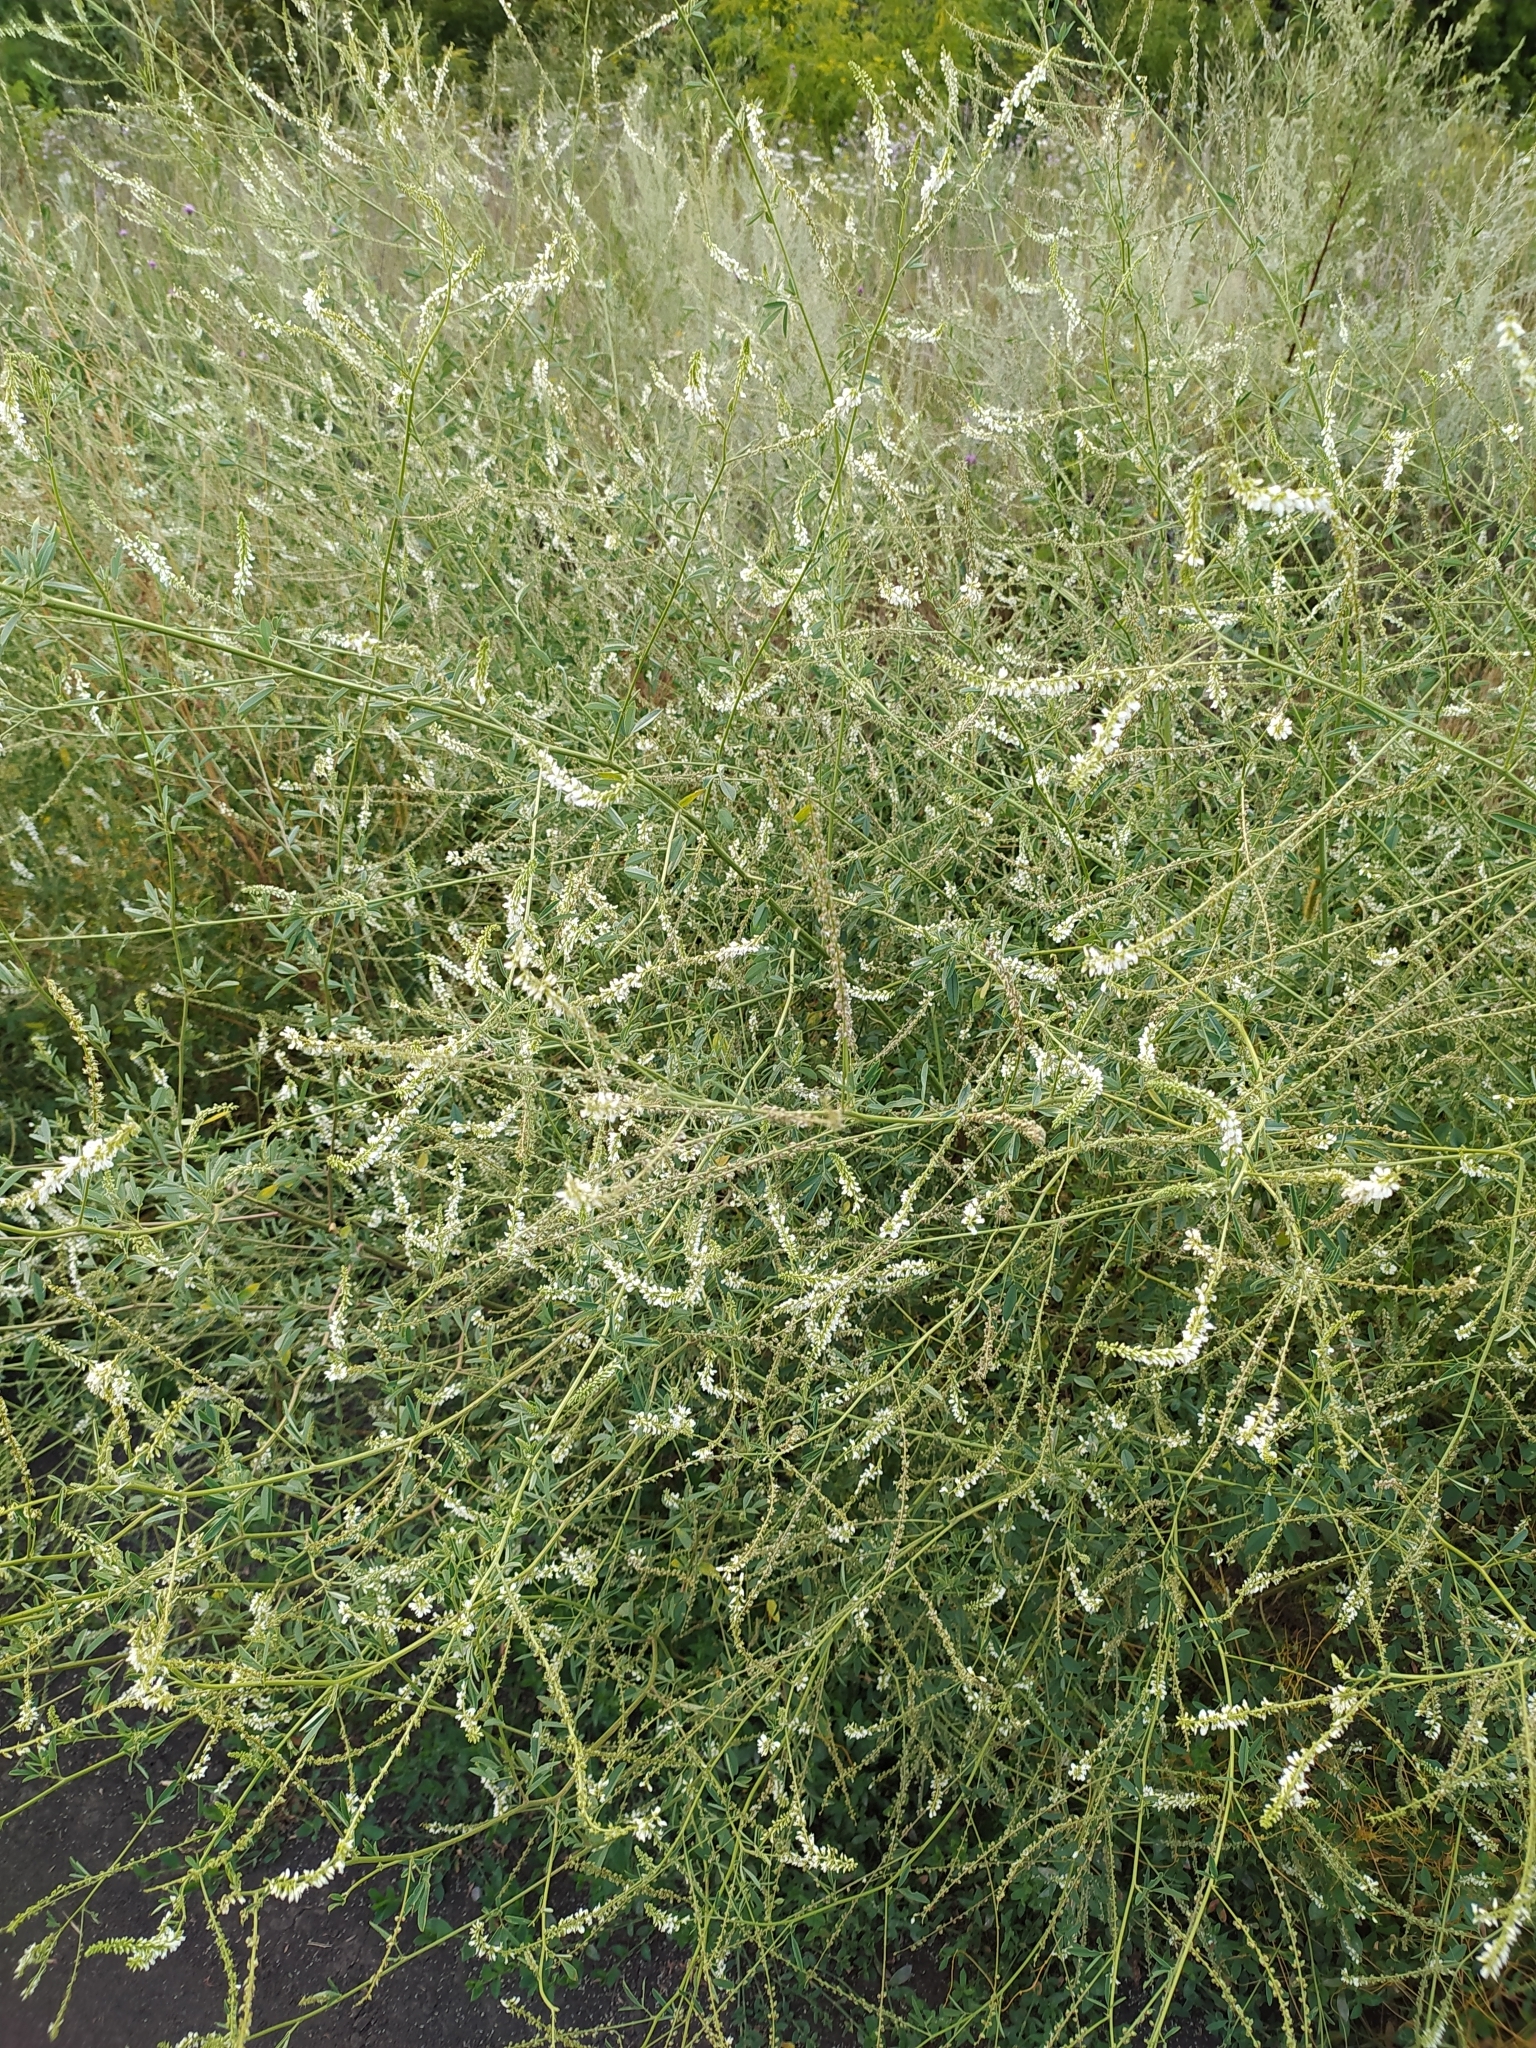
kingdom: Plantae
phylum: Tracheophyta
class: Magnoliopsida
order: Fabales
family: Fabaceae
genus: Melilotus
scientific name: Melilotus albus
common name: White melilot
